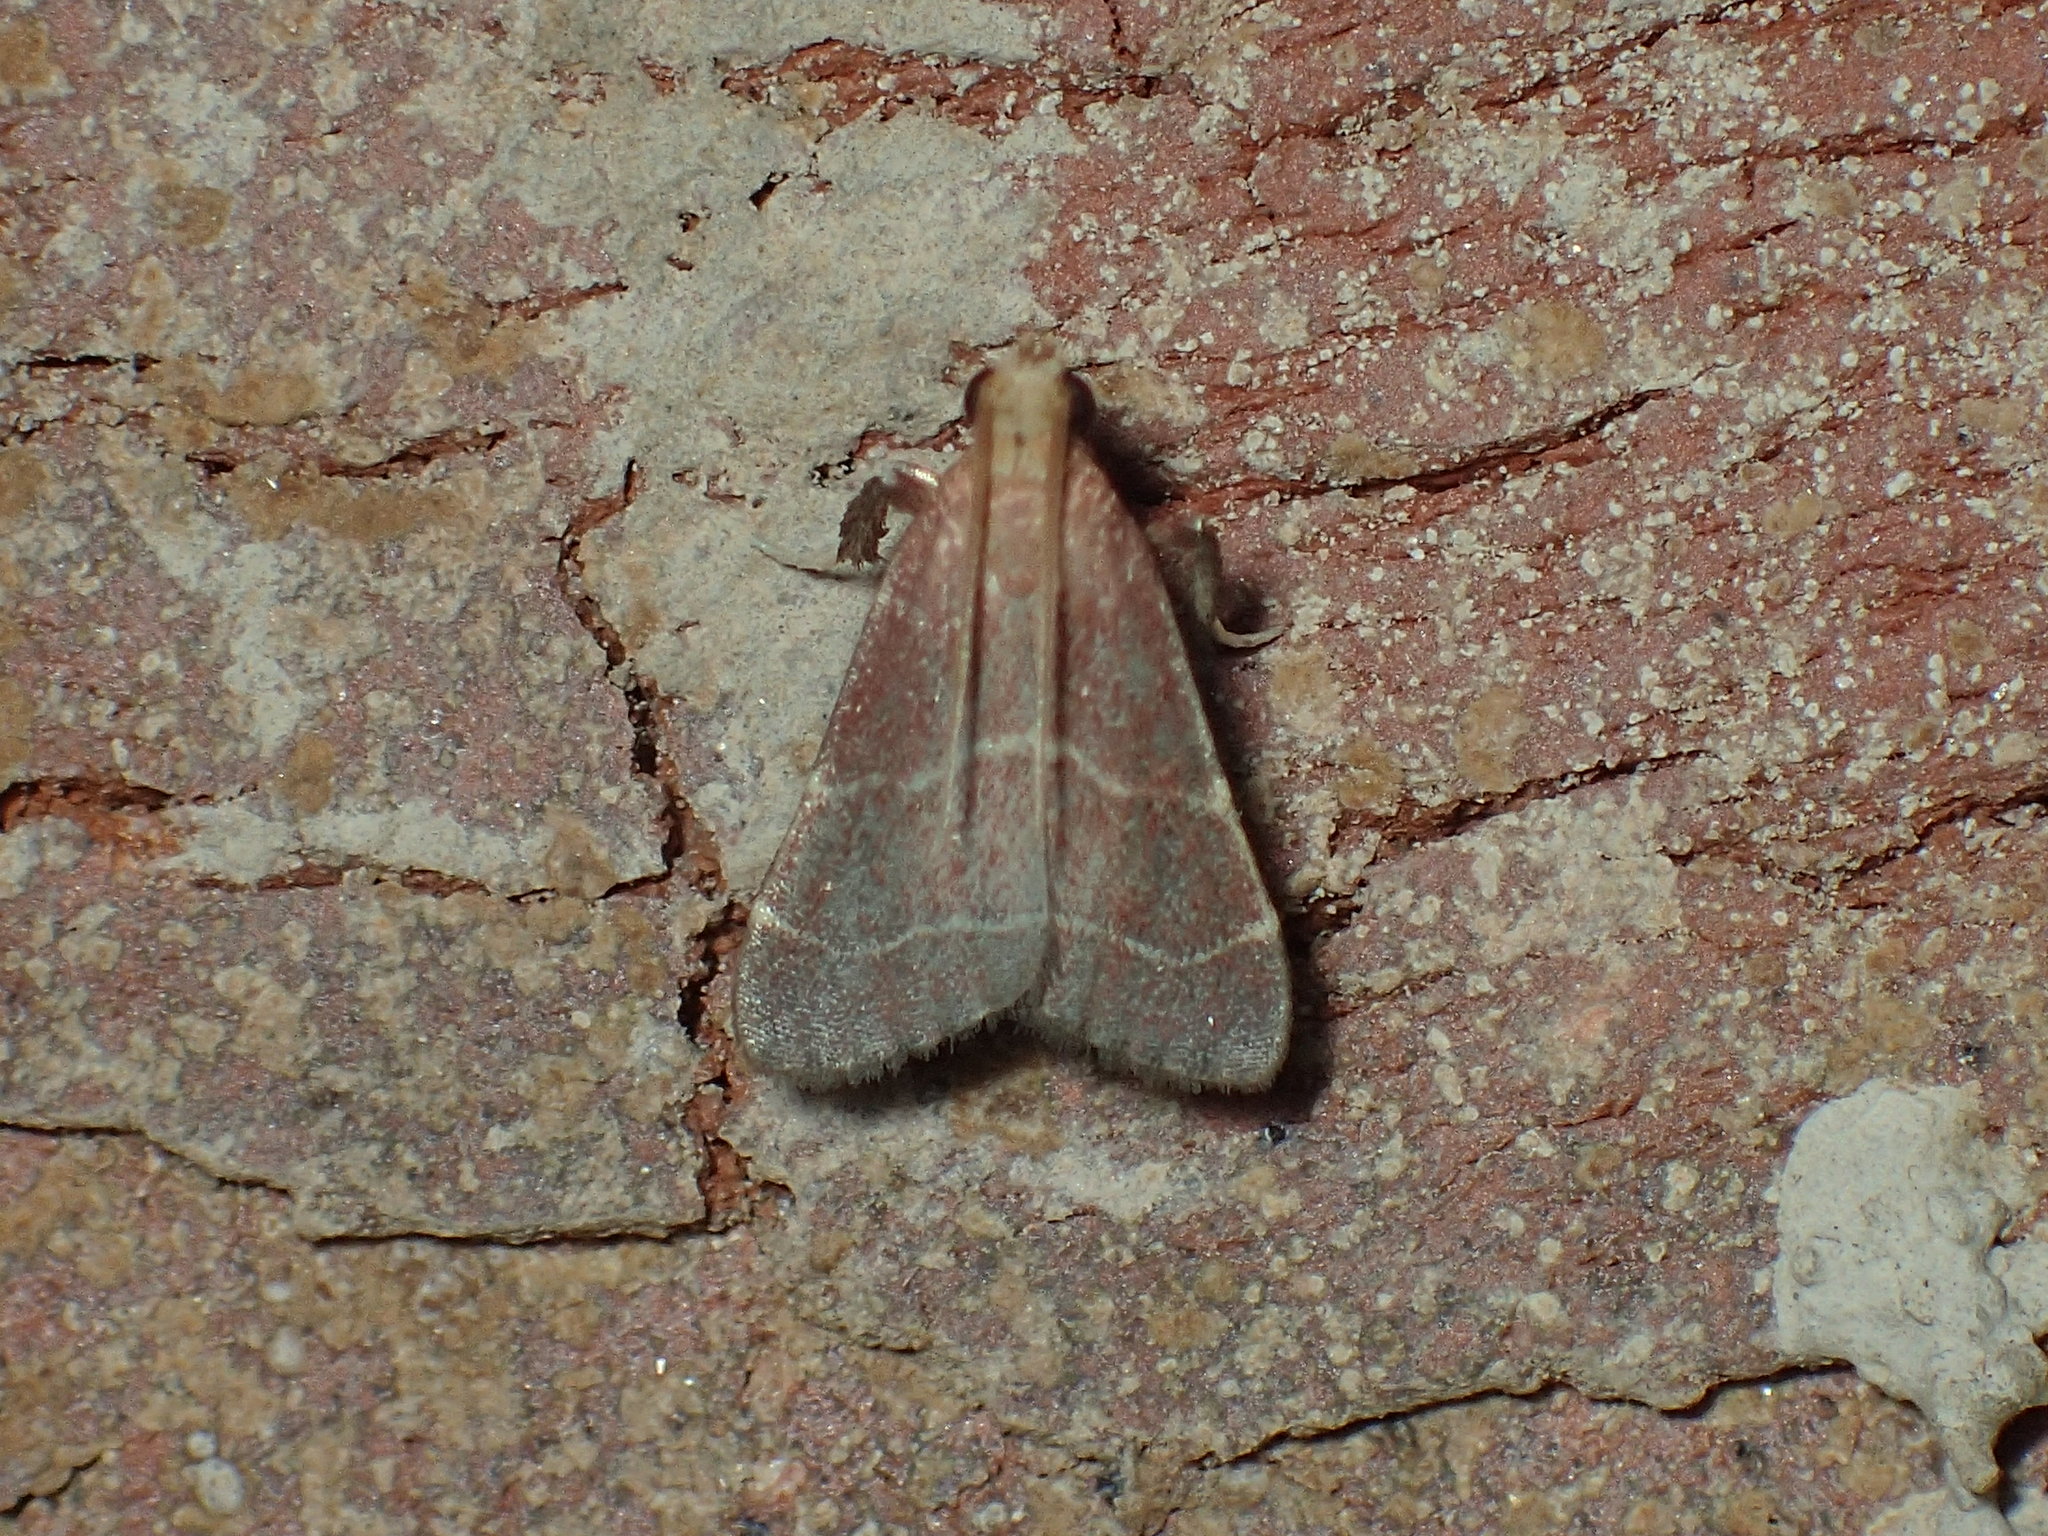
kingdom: Animalia
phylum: Arthropoda
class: Insecta
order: Lepidoptera
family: Pyralidae
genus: Arta
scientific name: Arta statalis
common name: Posturing arta moth
